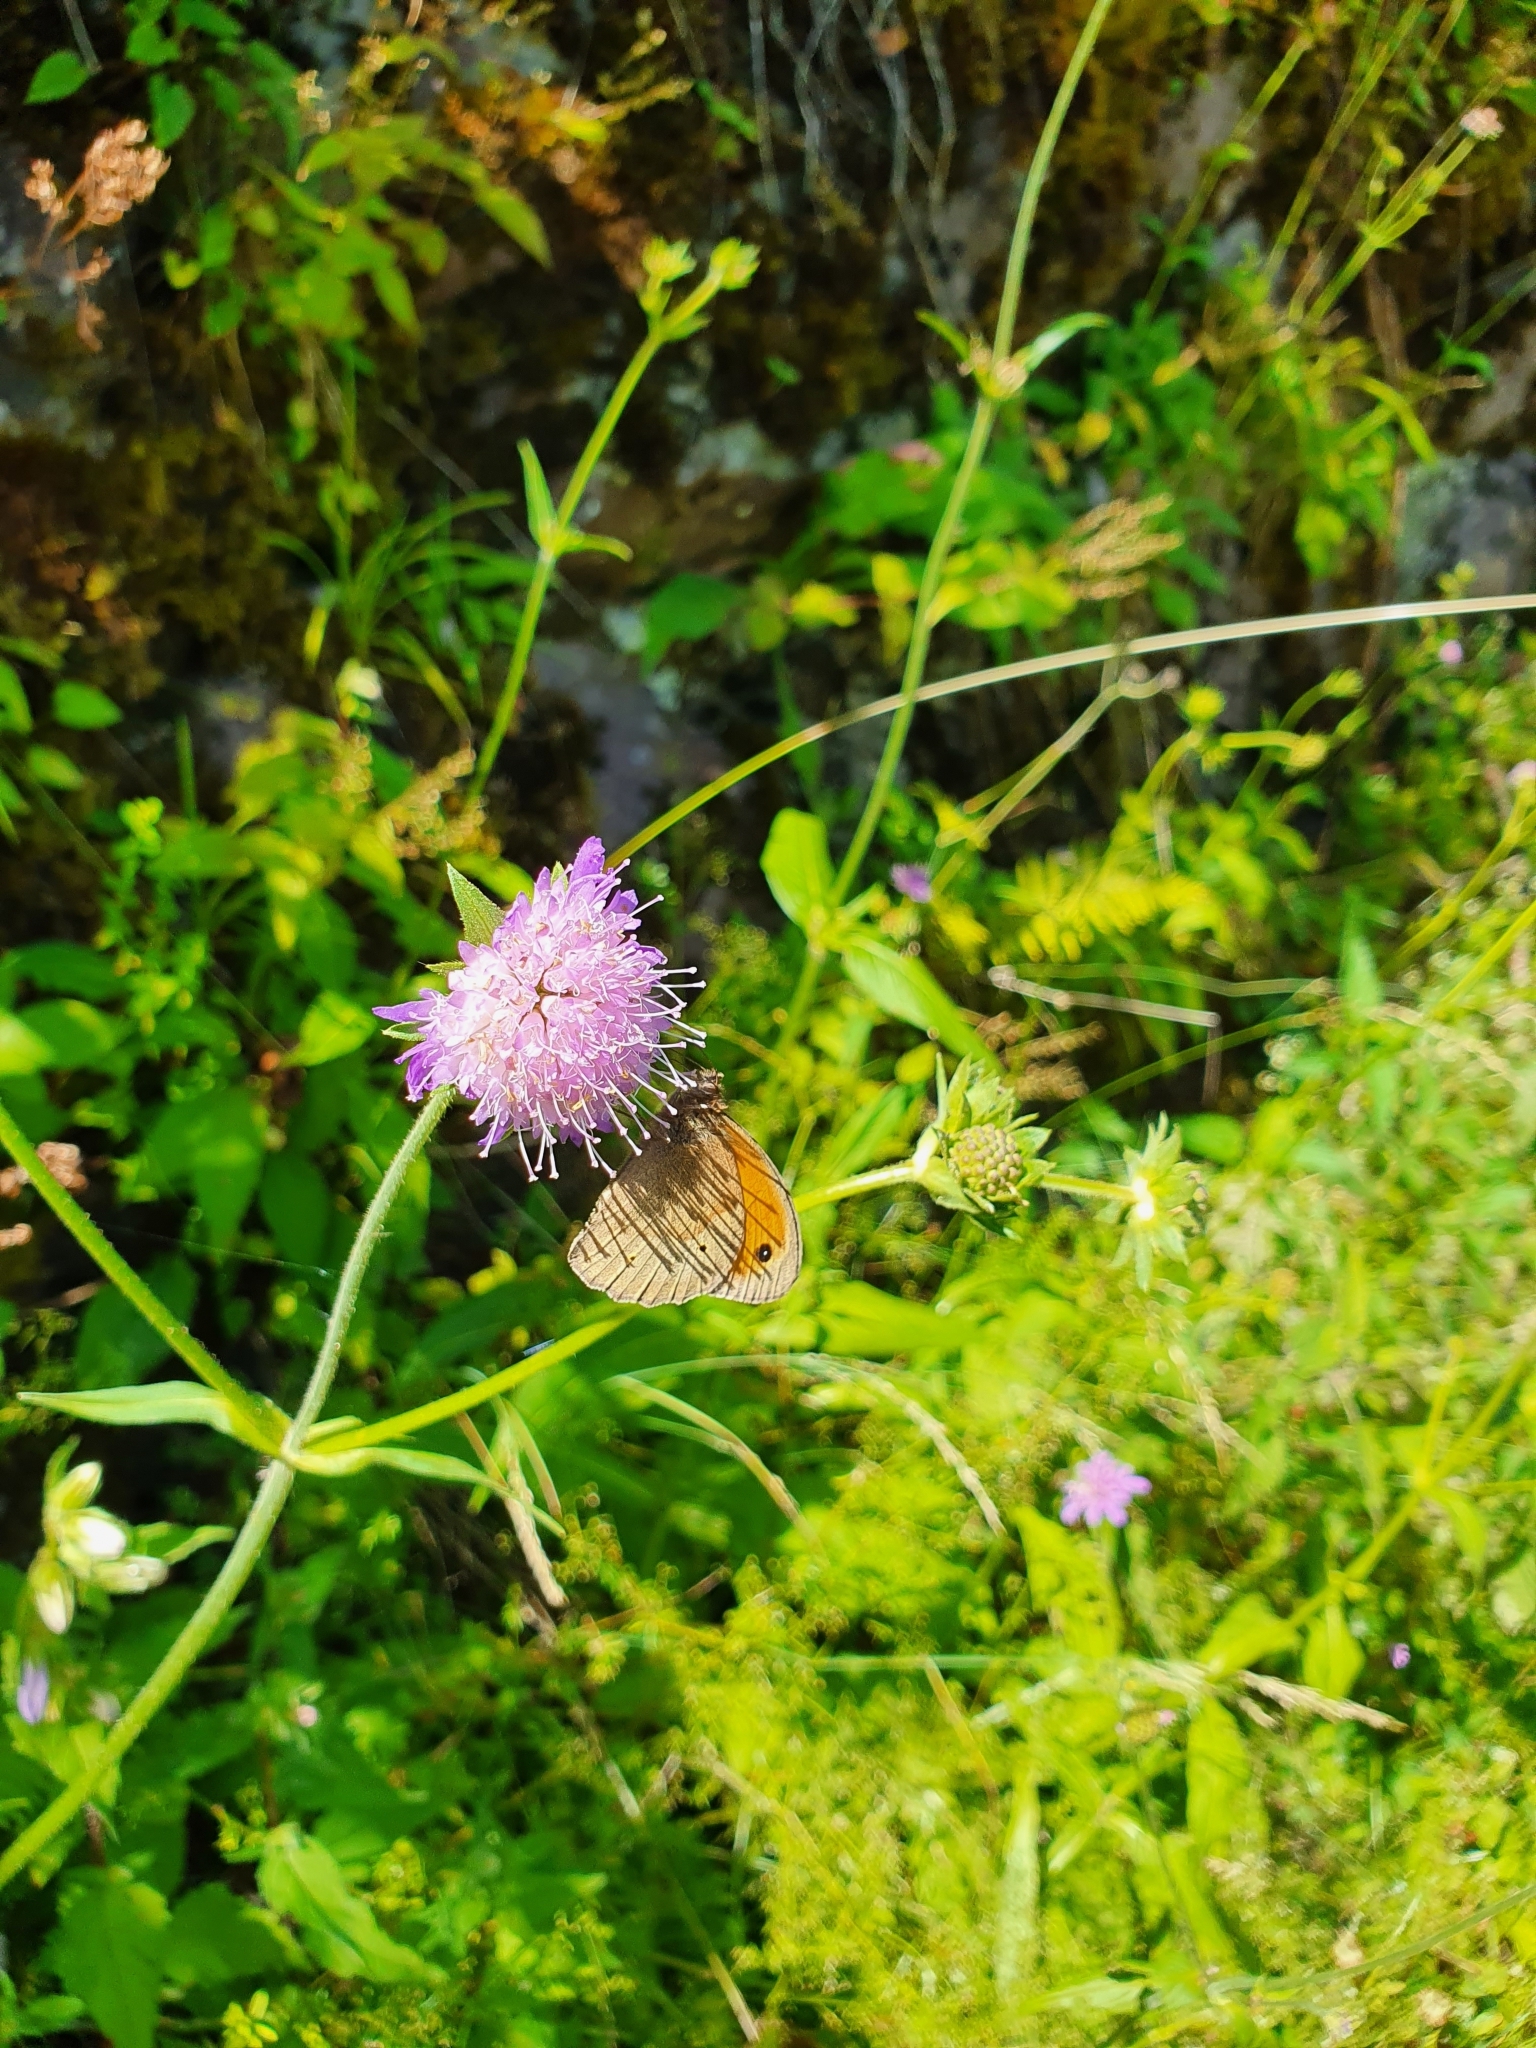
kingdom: Plantae
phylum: Tracheophyta
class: Magnoliopsida
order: Dipsacales
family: Caprifoliaceae
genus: Knautia
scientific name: Knautia dipsacifolia
